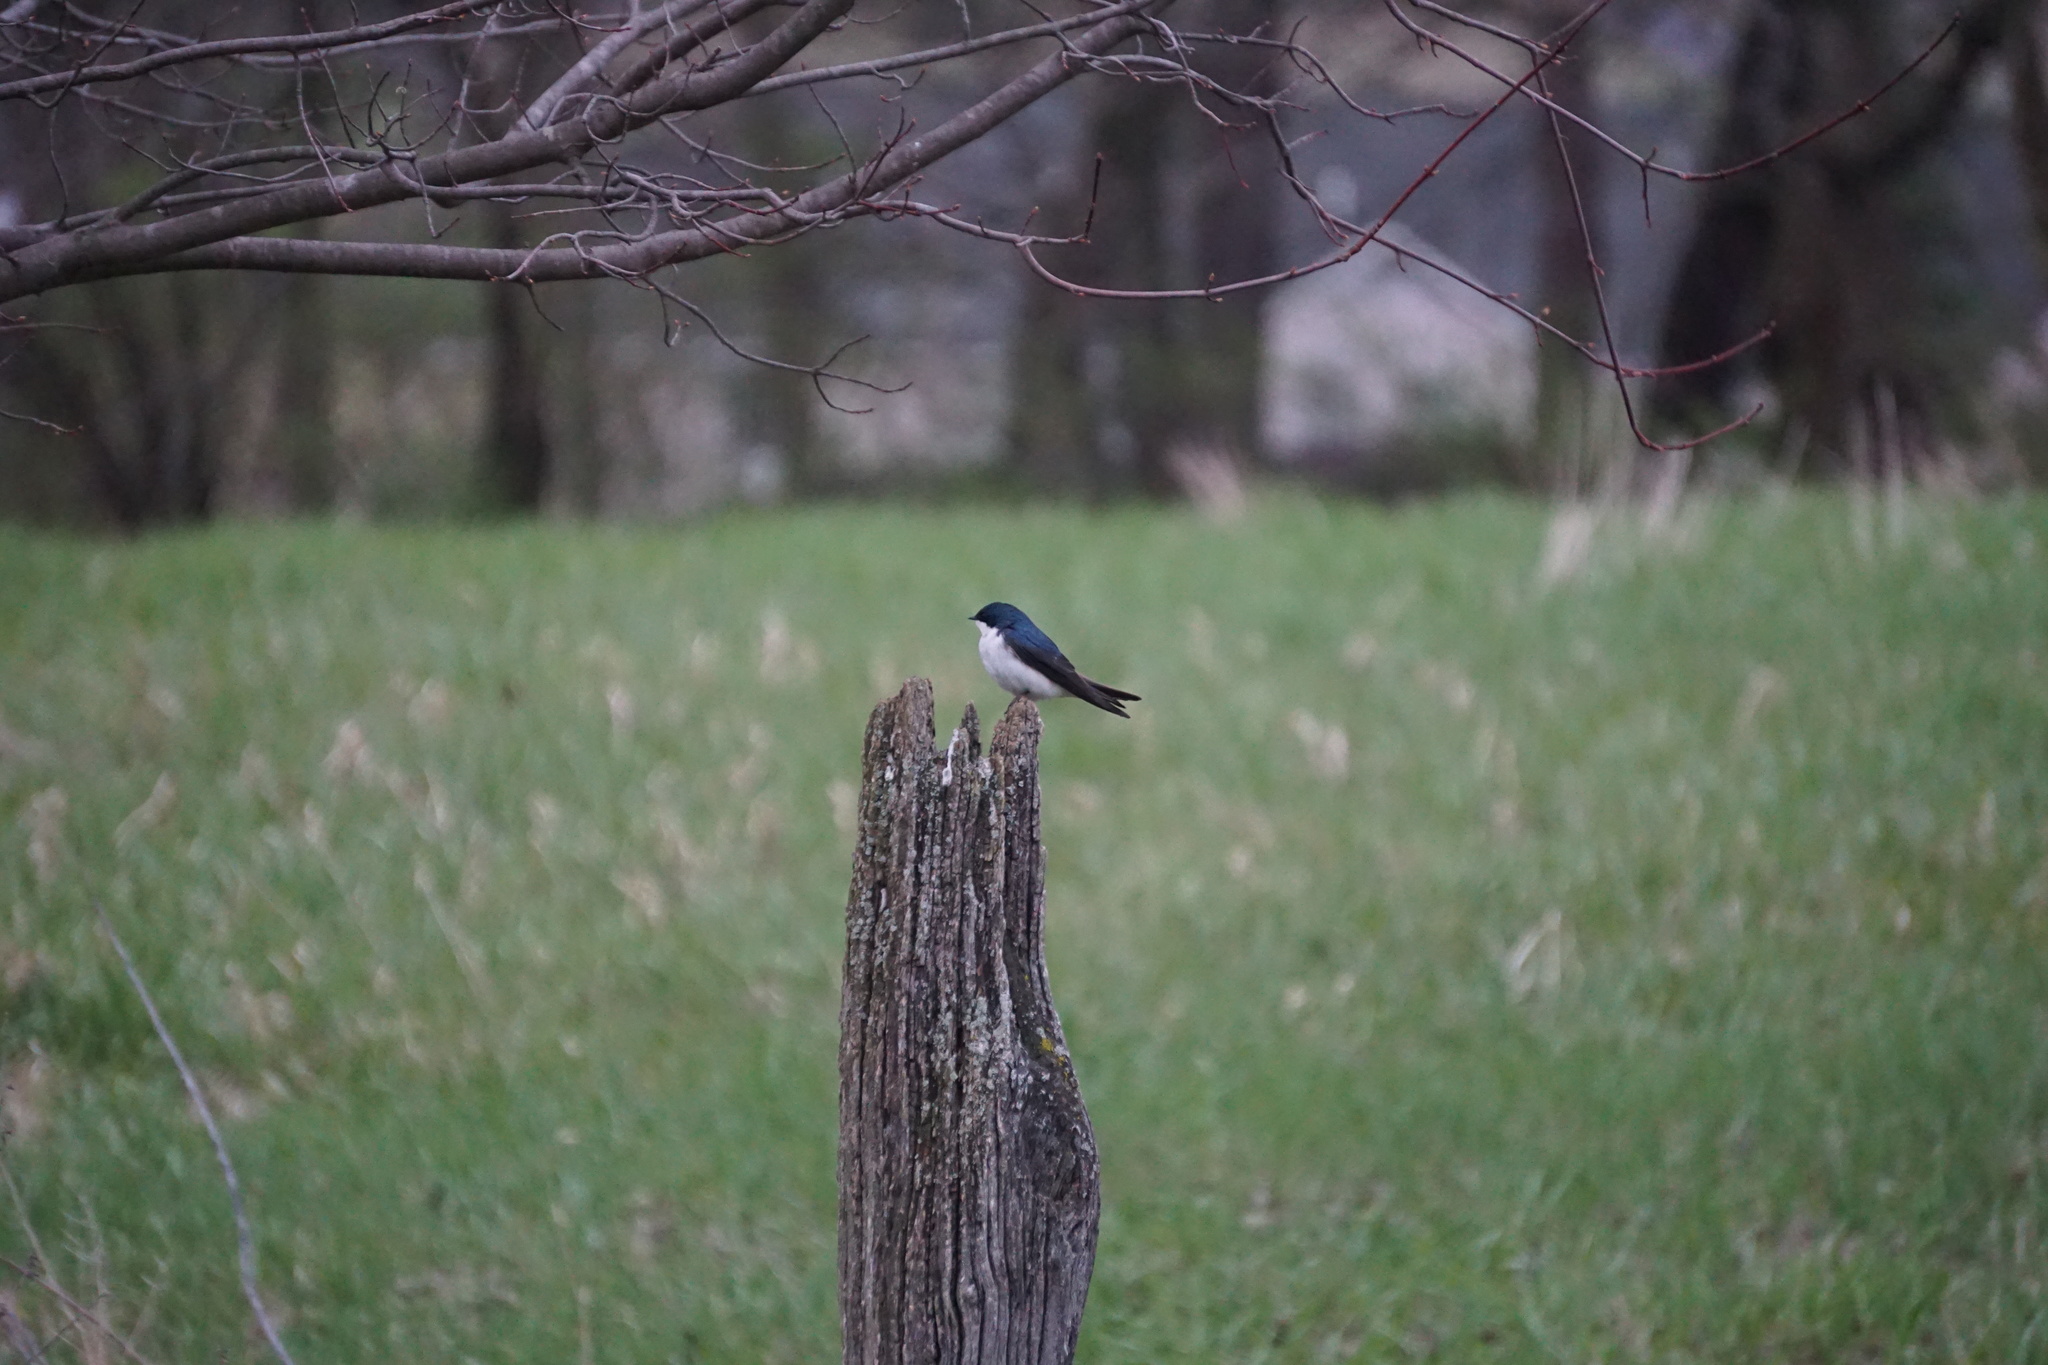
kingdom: Animalia
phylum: Chordata
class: Aves
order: Passeriformes
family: Hirundinidae
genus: Tachycineta
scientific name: Tachycineta bicolor
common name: Tree swallow
